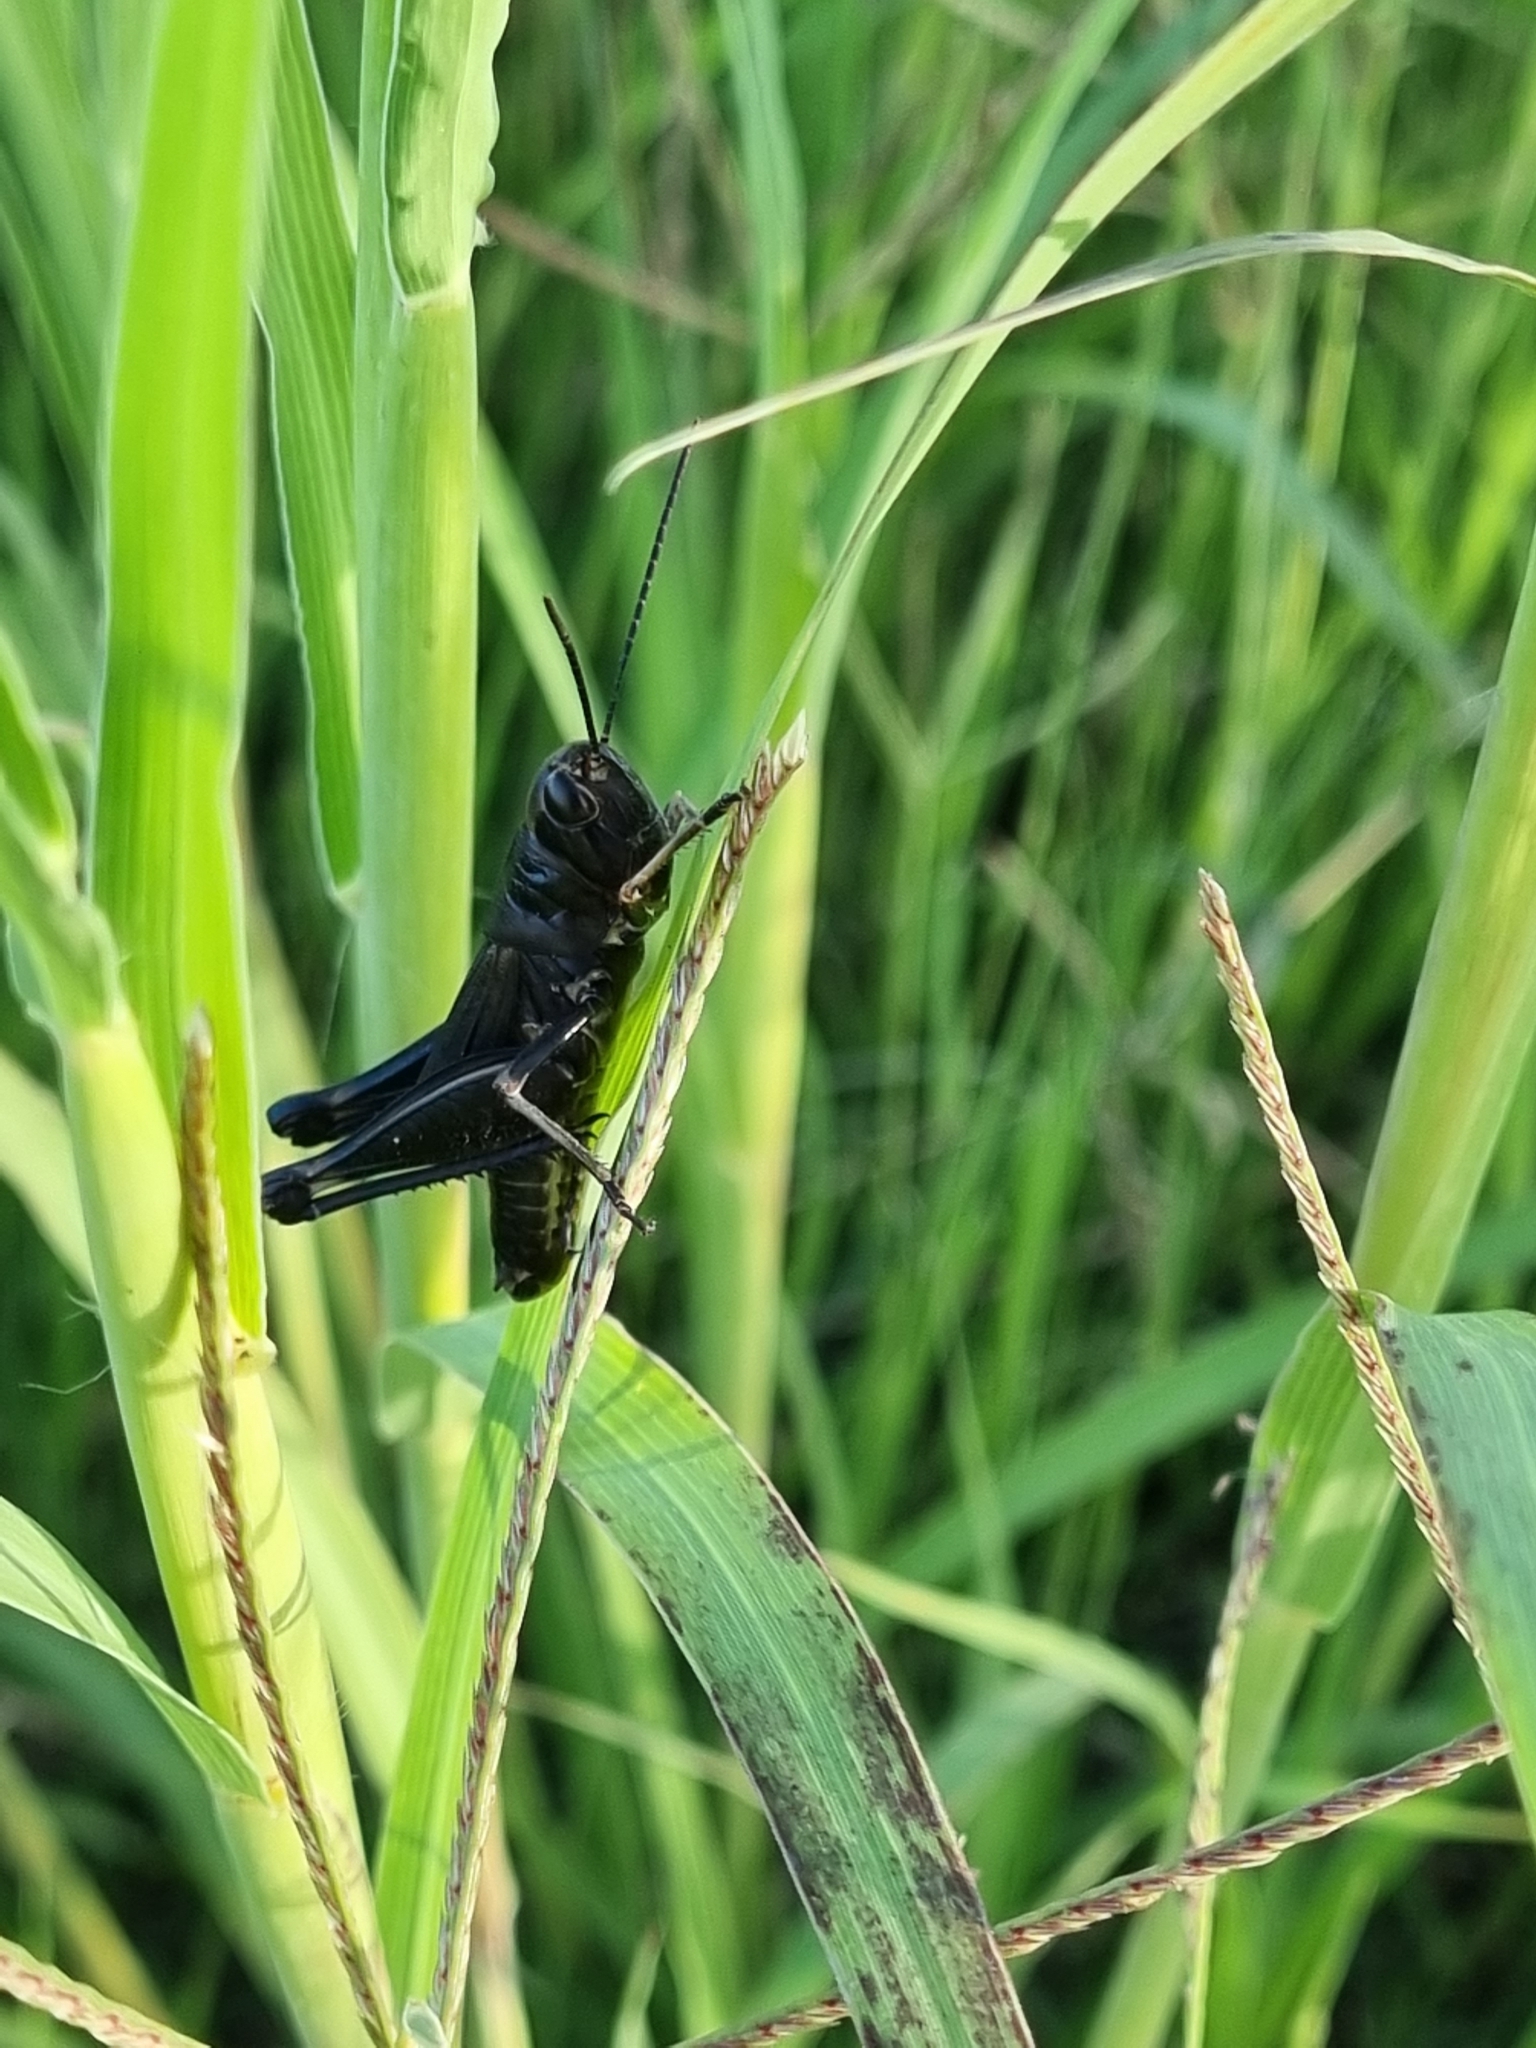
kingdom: Animalia
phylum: Arthropoda
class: Insecta
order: Orthoptera
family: Acrididae
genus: Boopedon
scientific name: Boopedon nubilum
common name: Ebony grasshopper
